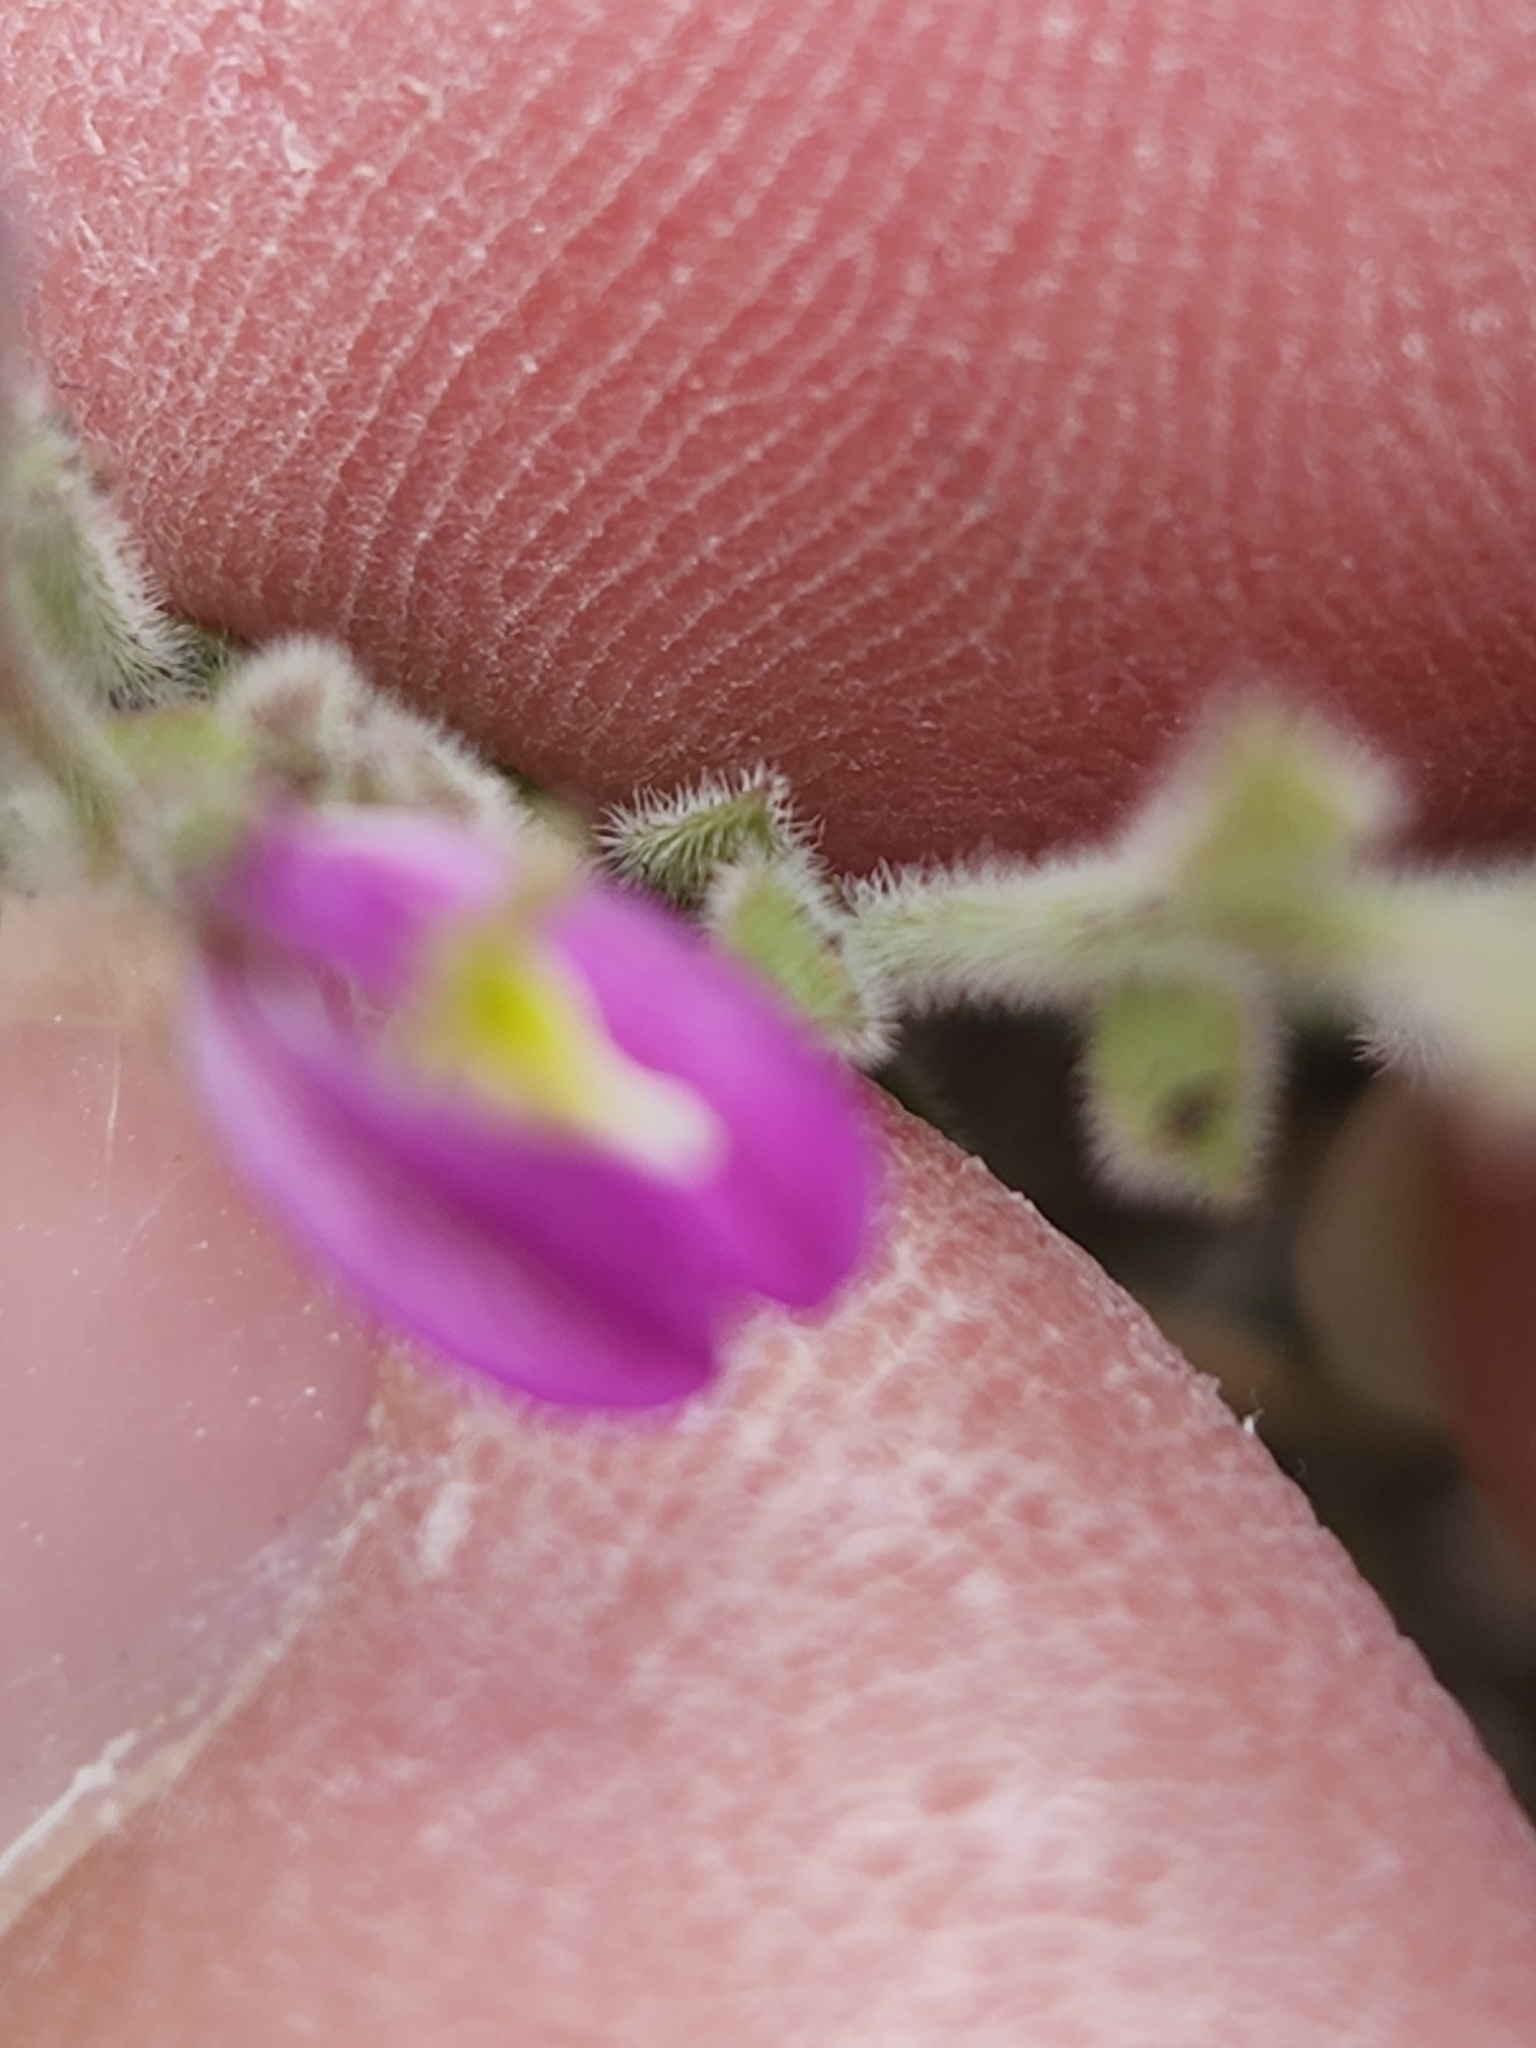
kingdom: Plantae
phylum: Tracheophyta
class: Magnoliopsida
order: Fabales
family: Polygalaceae
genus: Rhinotropis
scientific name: Rhinotropis lindheimeri
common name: Shrubby milkwort
